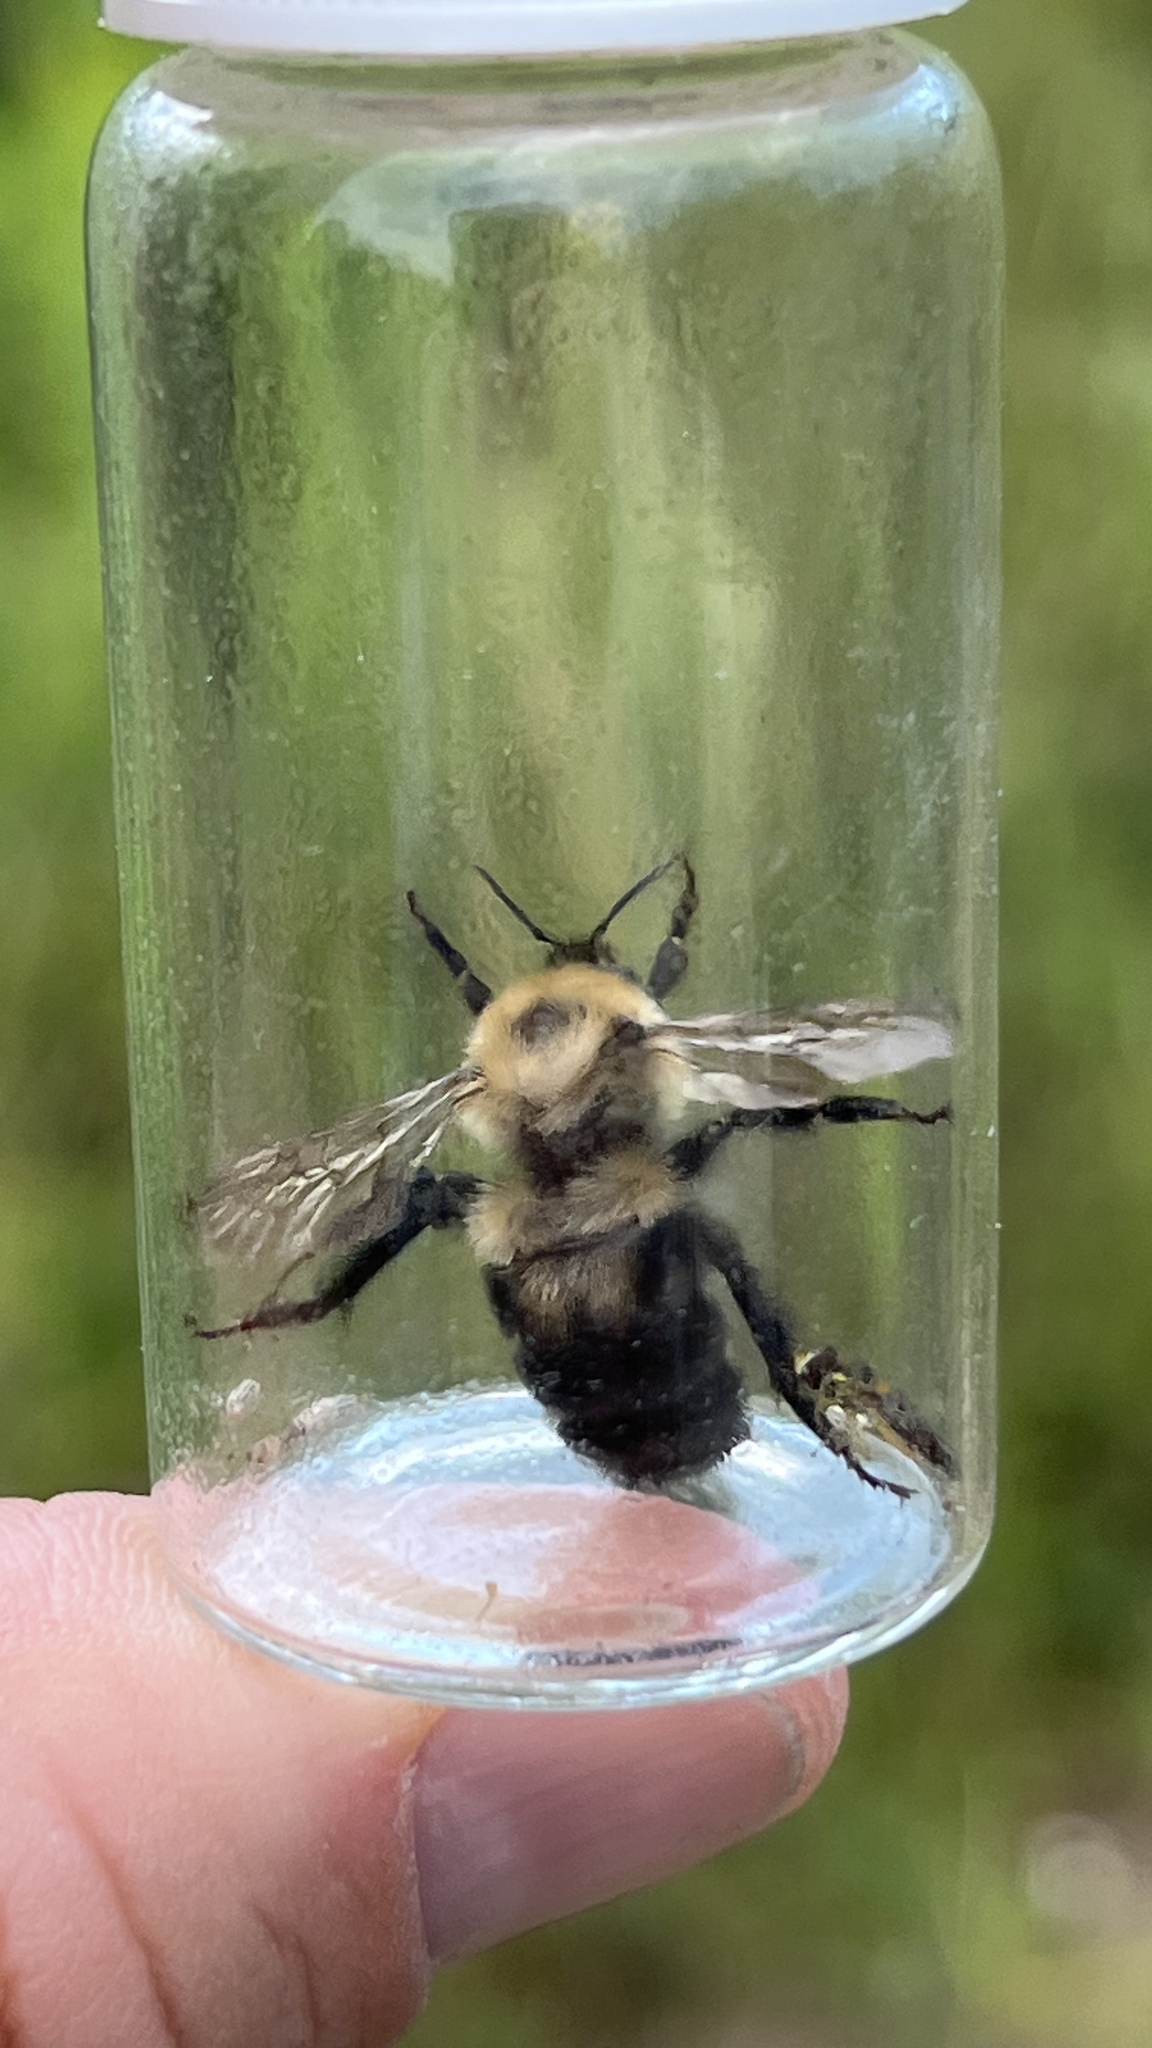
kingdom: Animalia
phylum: Arthropoda
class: Insecta
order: Hymenoptera
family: Apidae
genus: Bombus
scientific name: Bombus bimaculatus
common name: Two-spotted bumble bee
